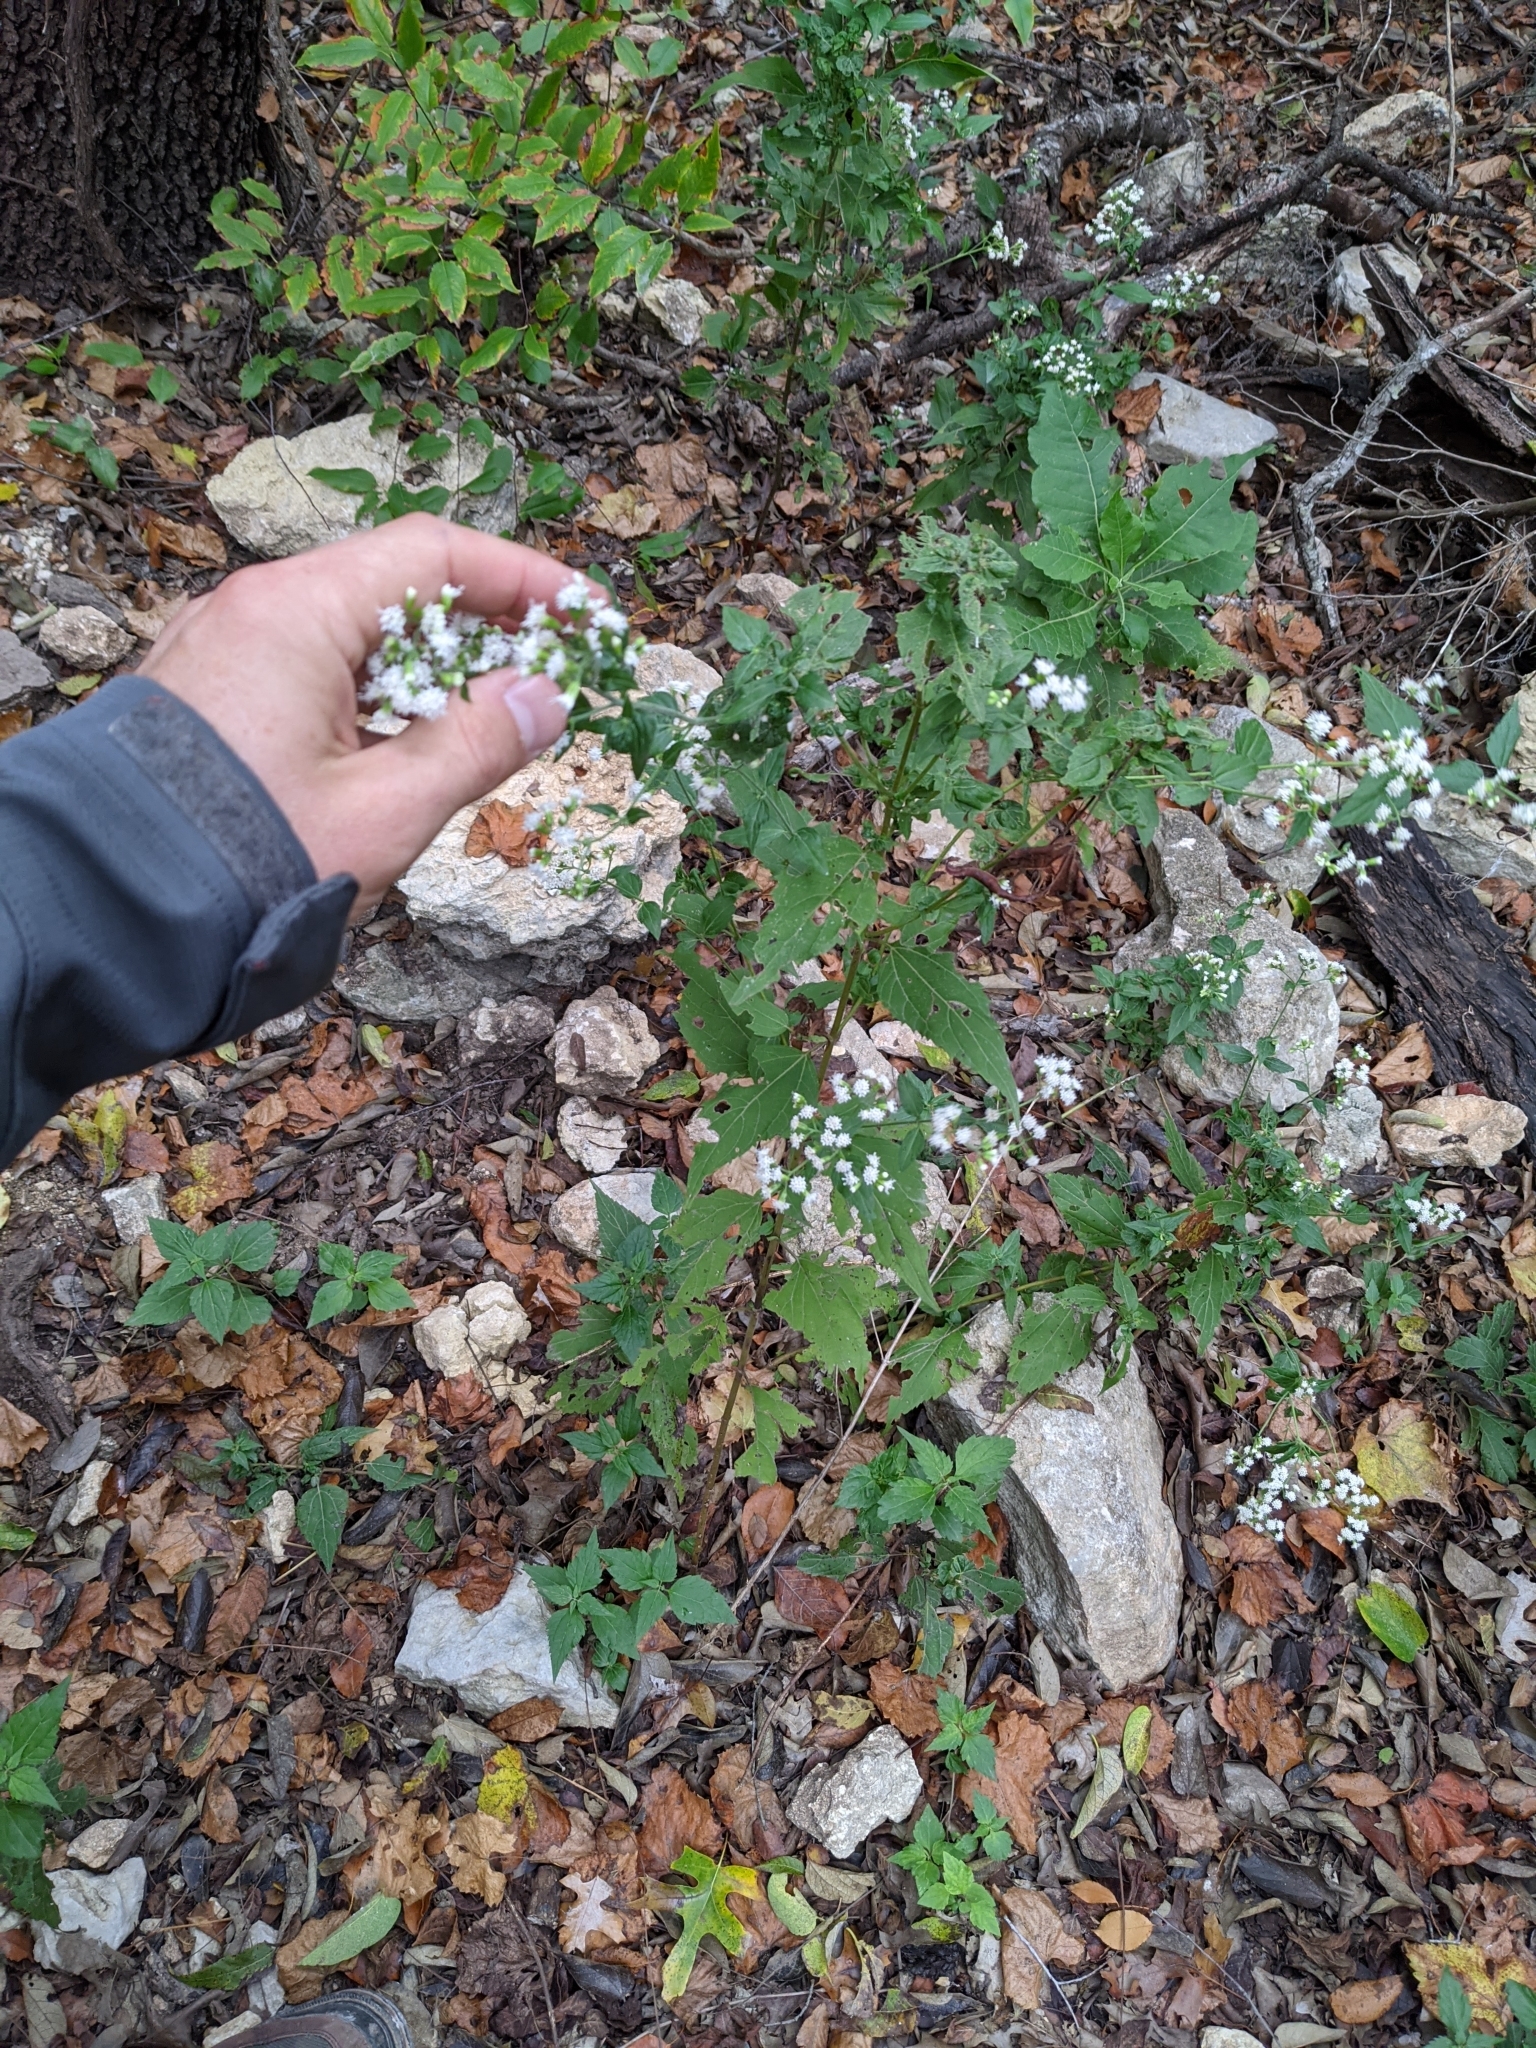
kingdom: Plantae
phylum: Tracheophyta
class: Magnoliopsida
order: Asterales
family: Asteraceae
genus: Ageratina
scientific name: Ageratina altissima
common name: White snakeroot
